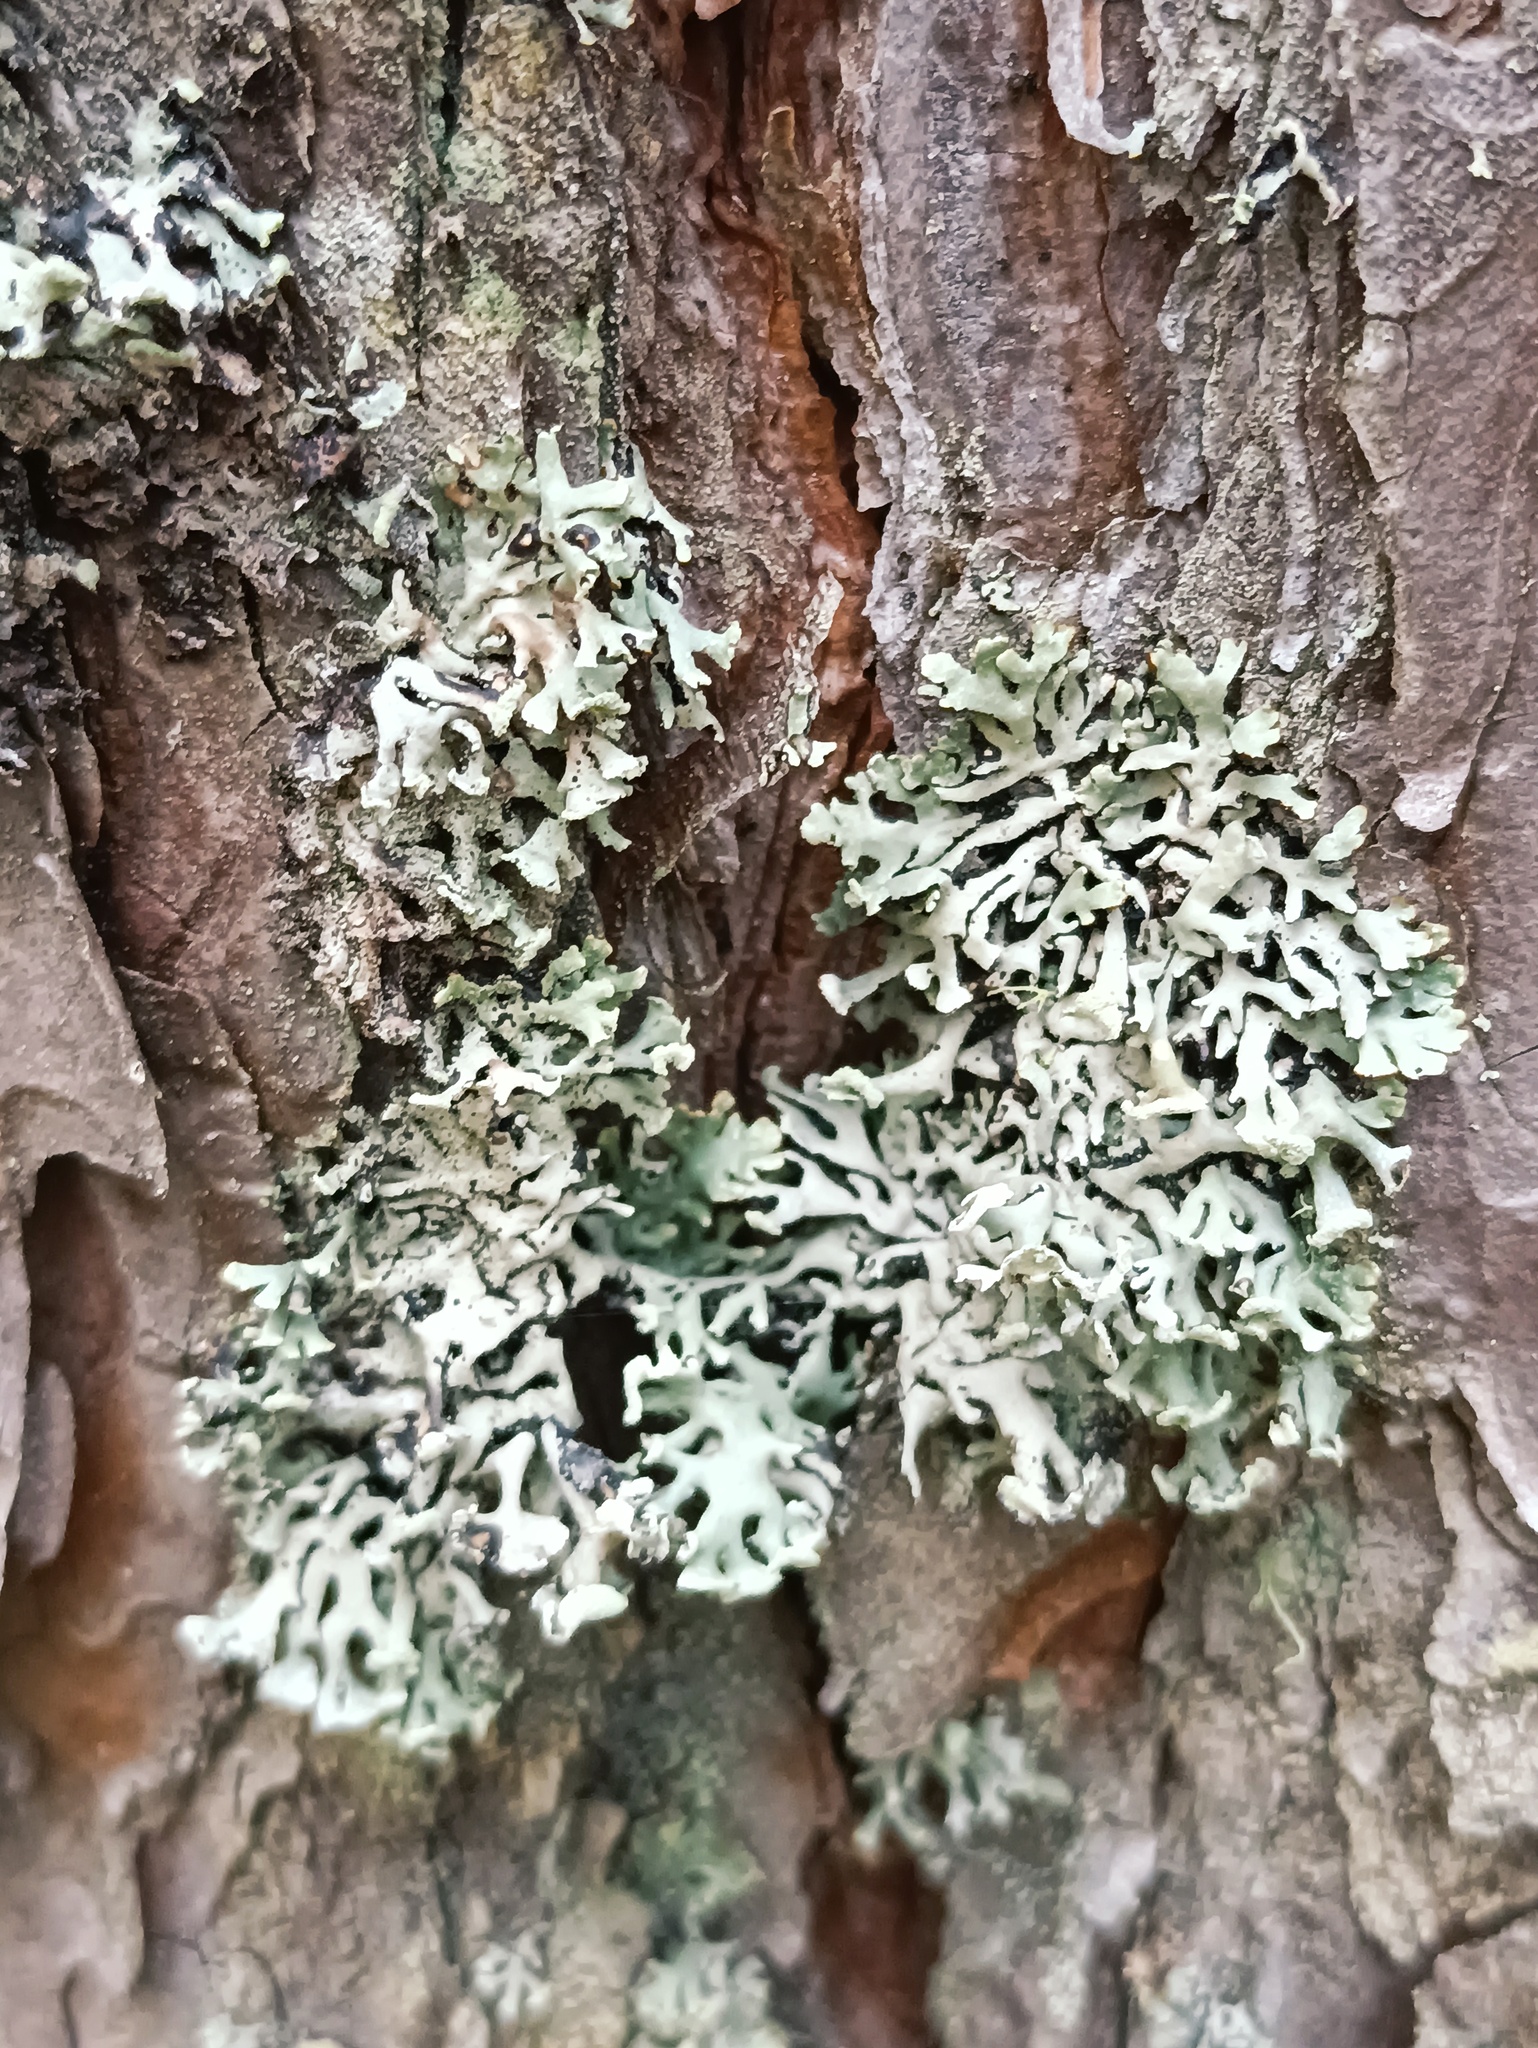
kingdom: Fungi
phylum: Ascomycota
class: Lecanoromycetes
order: Lecanorales
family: Parmeliaceae
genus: Hypogymnia
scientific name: Hypogymnia physodes
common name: Dark crottle
